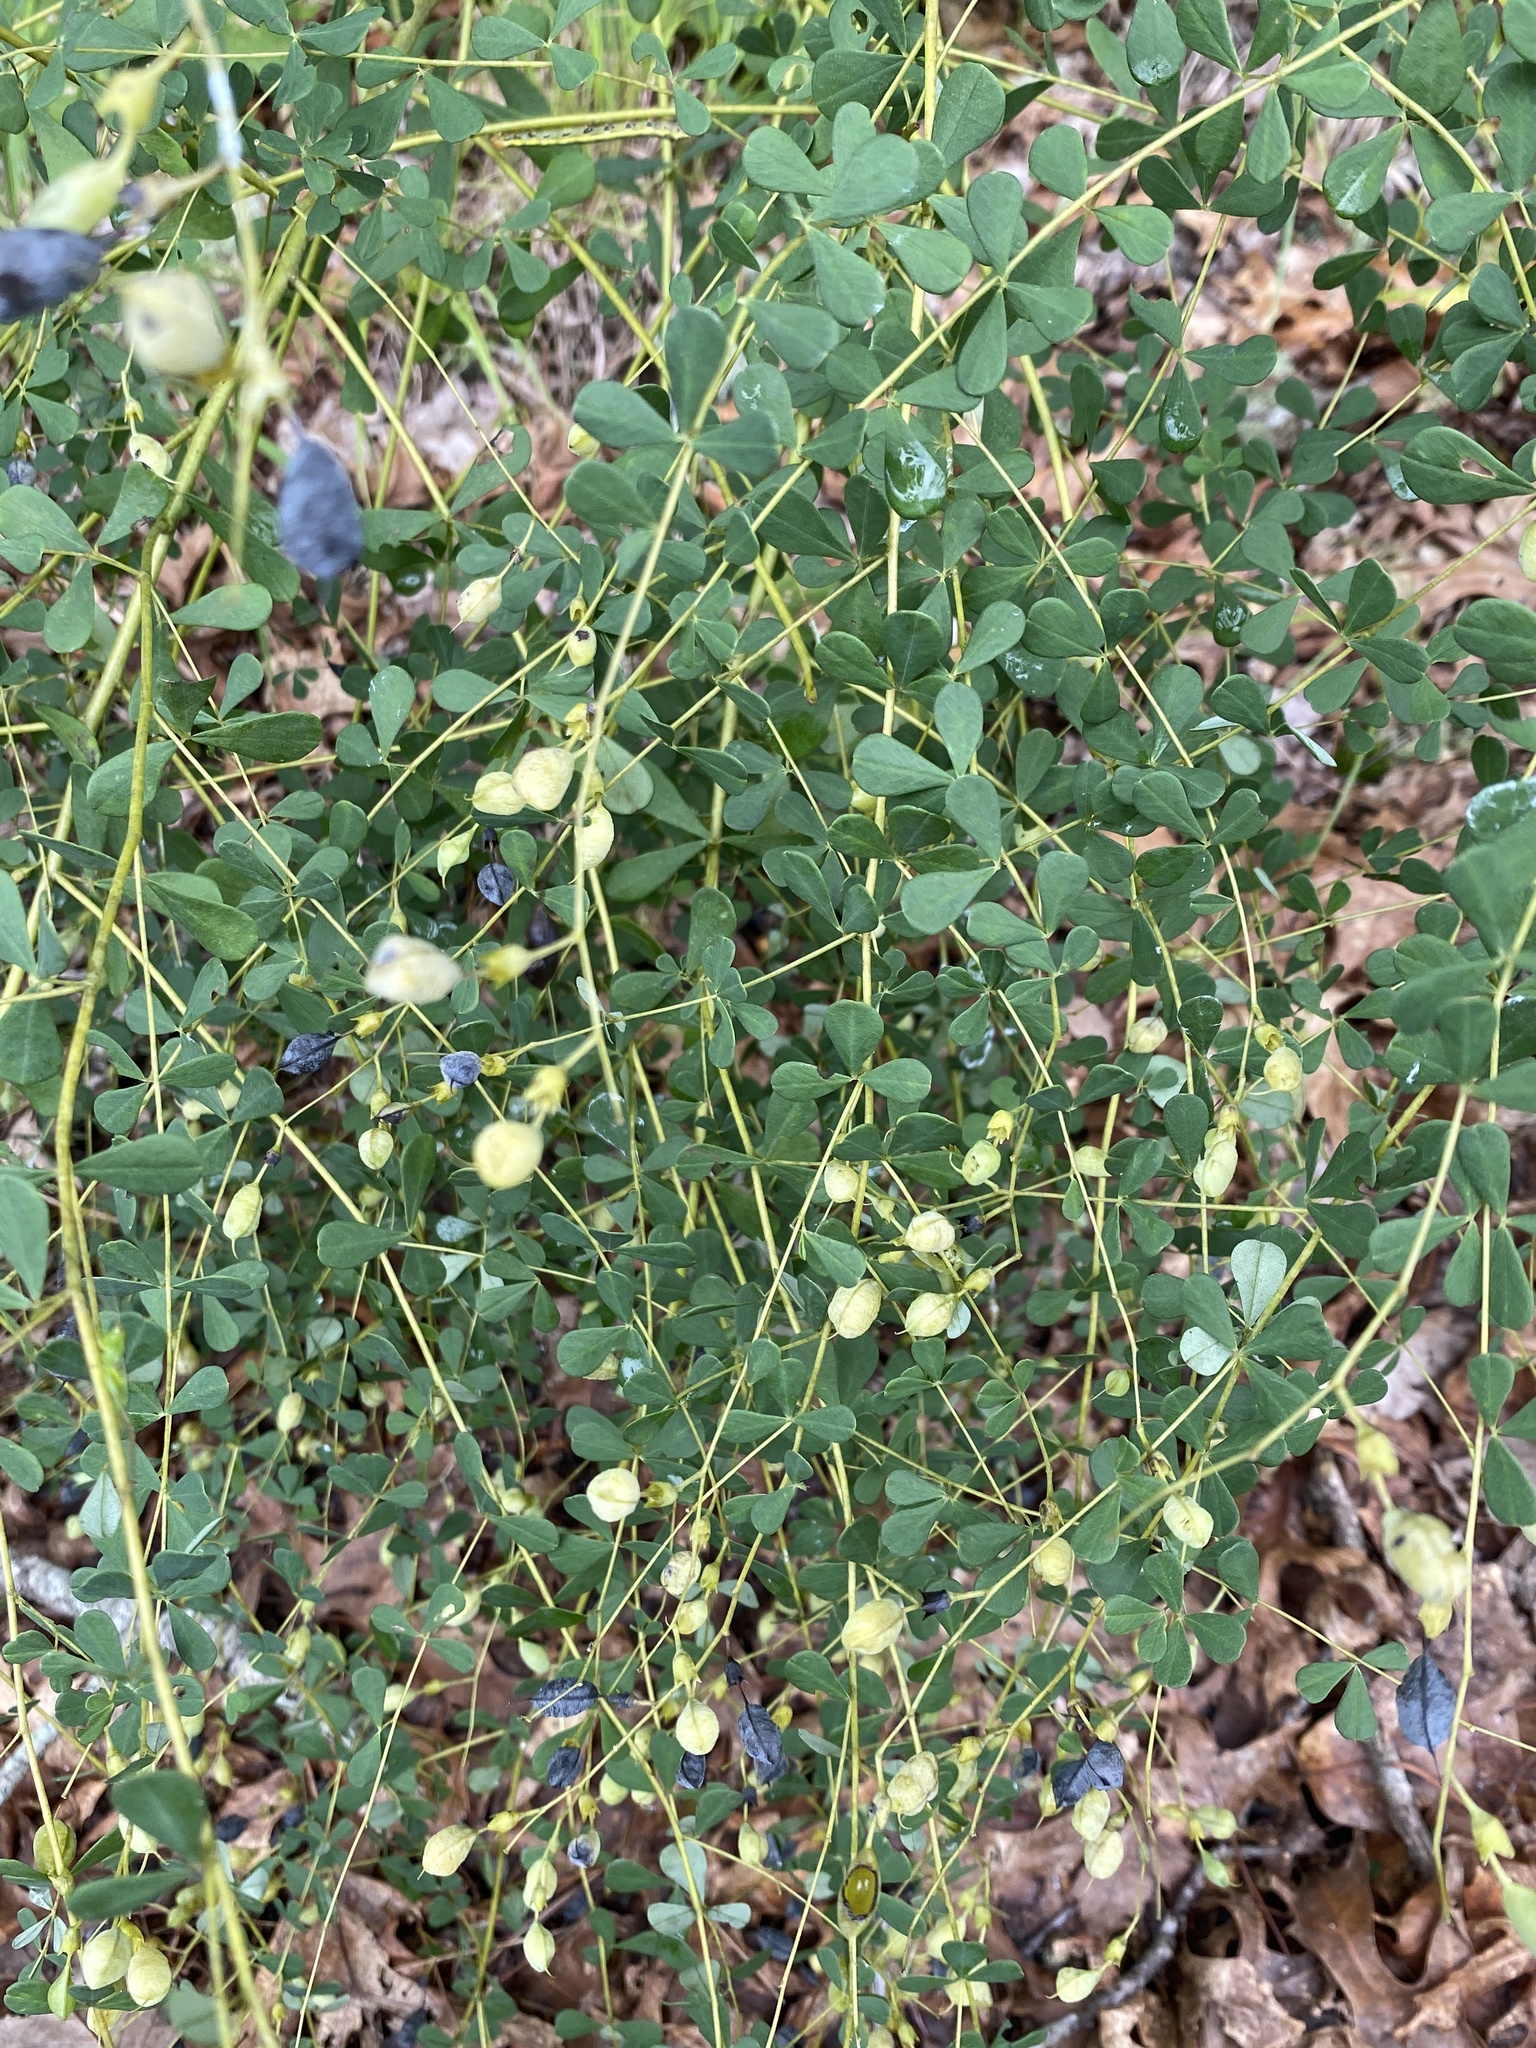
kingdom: Plantae
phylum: Tracheophyta
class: Magnoliopsida
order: Fabales
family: Fabaceae
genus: Baptisia
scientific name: Baptisia tinctoria
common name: Wild indigo
